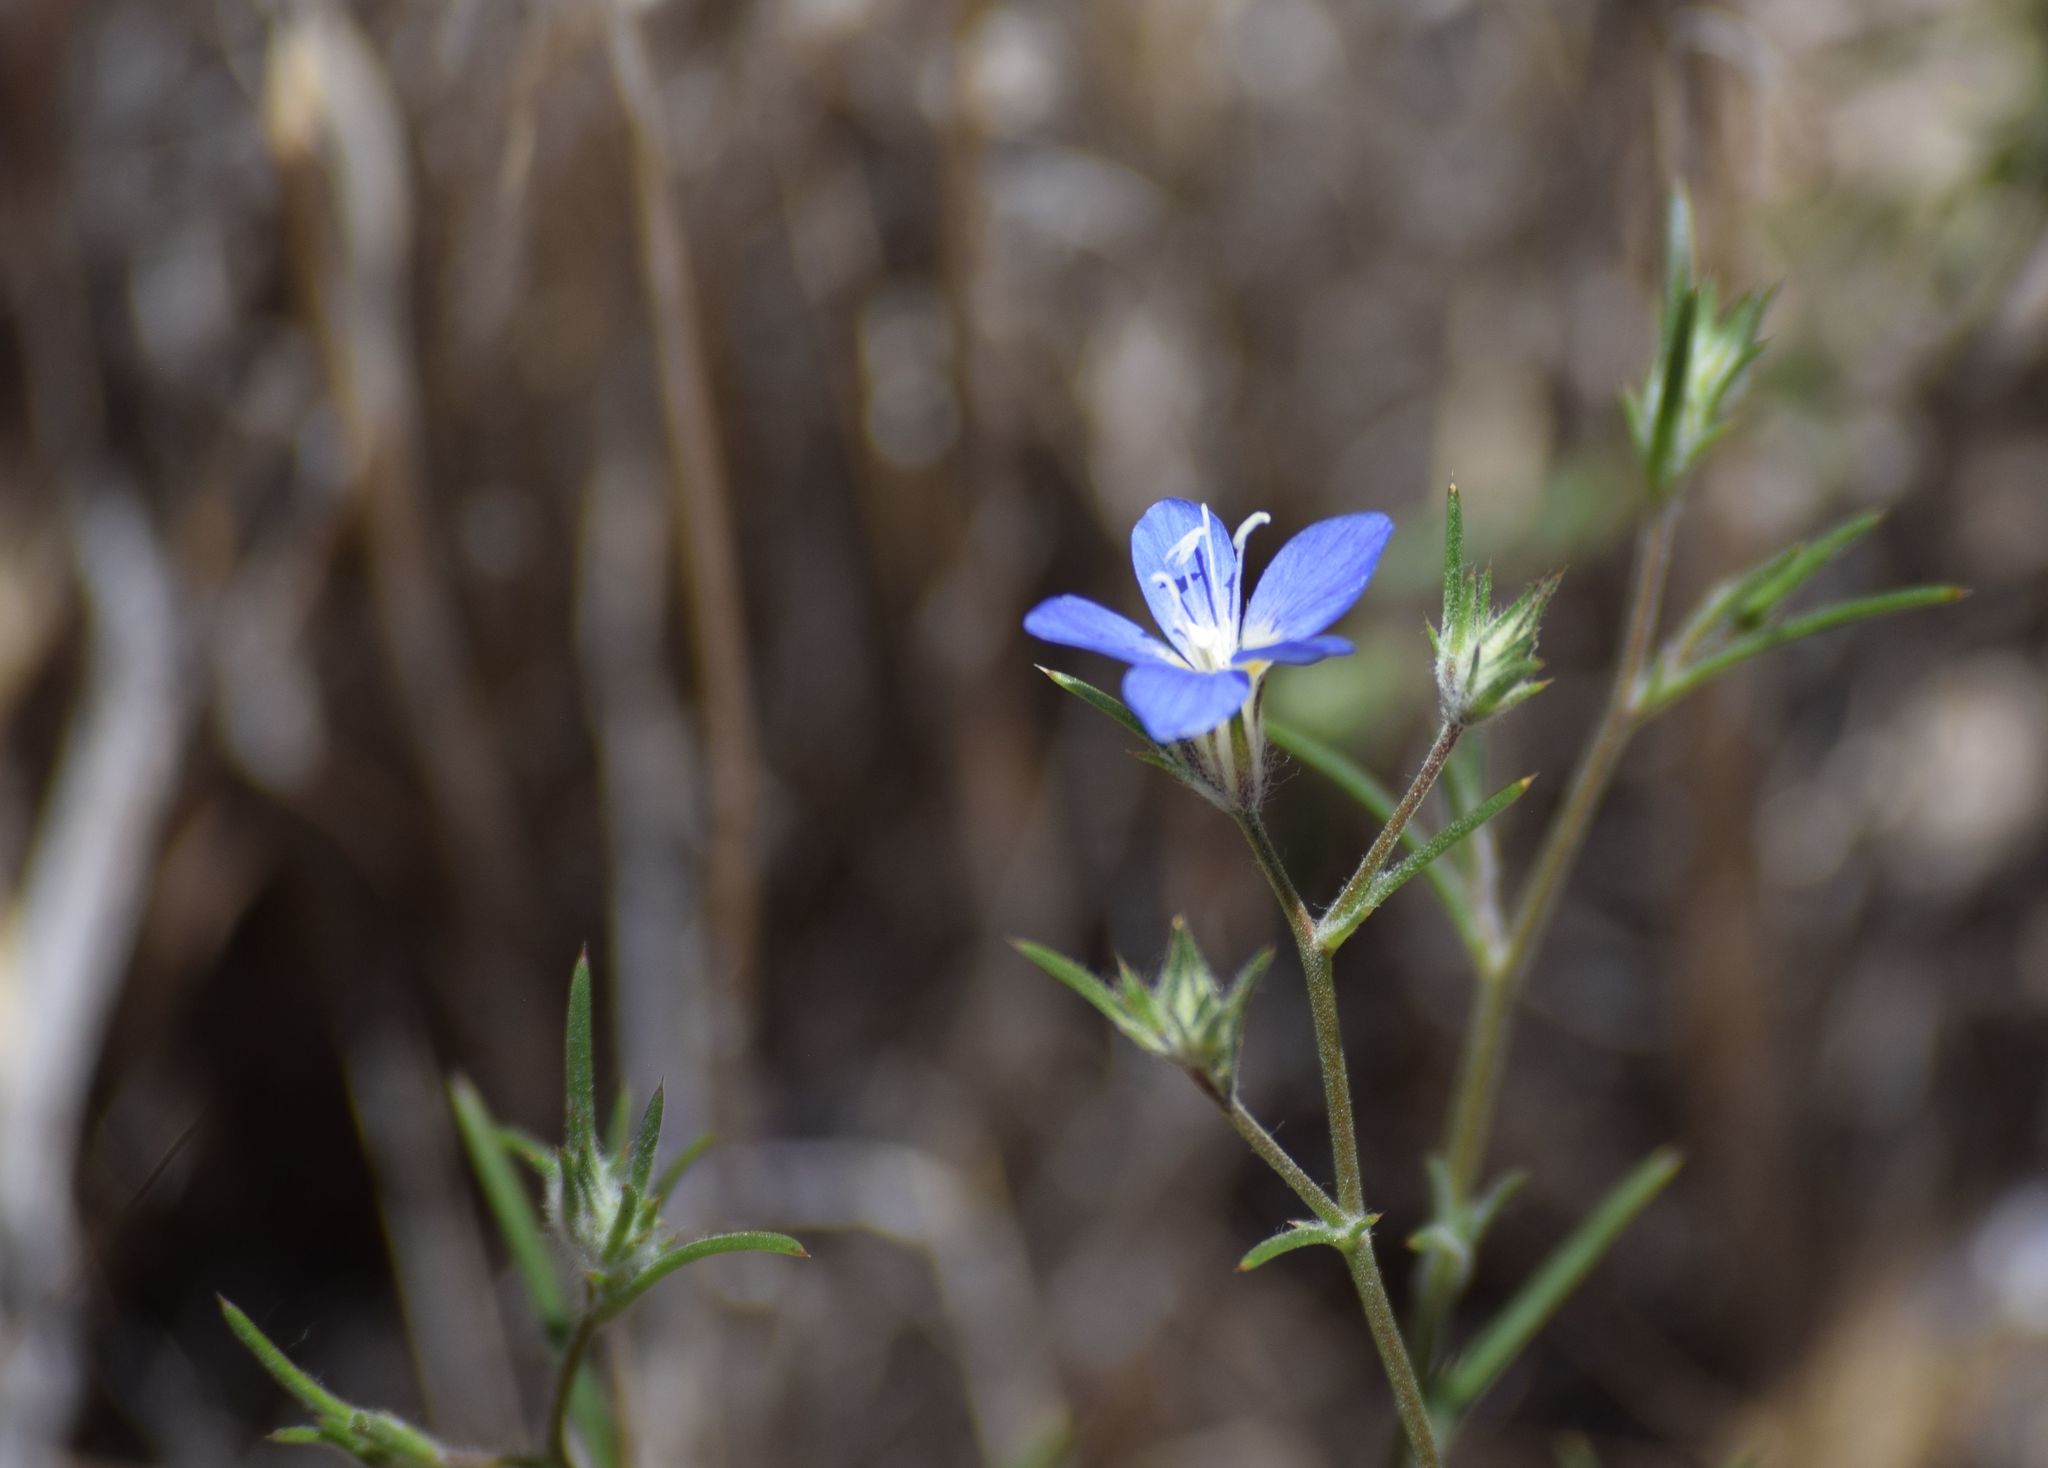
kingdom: Plantae
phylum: Tracheophyta
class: Magnoliopsida
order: Ericales
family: Polemoniaceae
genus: Eriastrum
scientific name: Eriastrum sapphirinum
